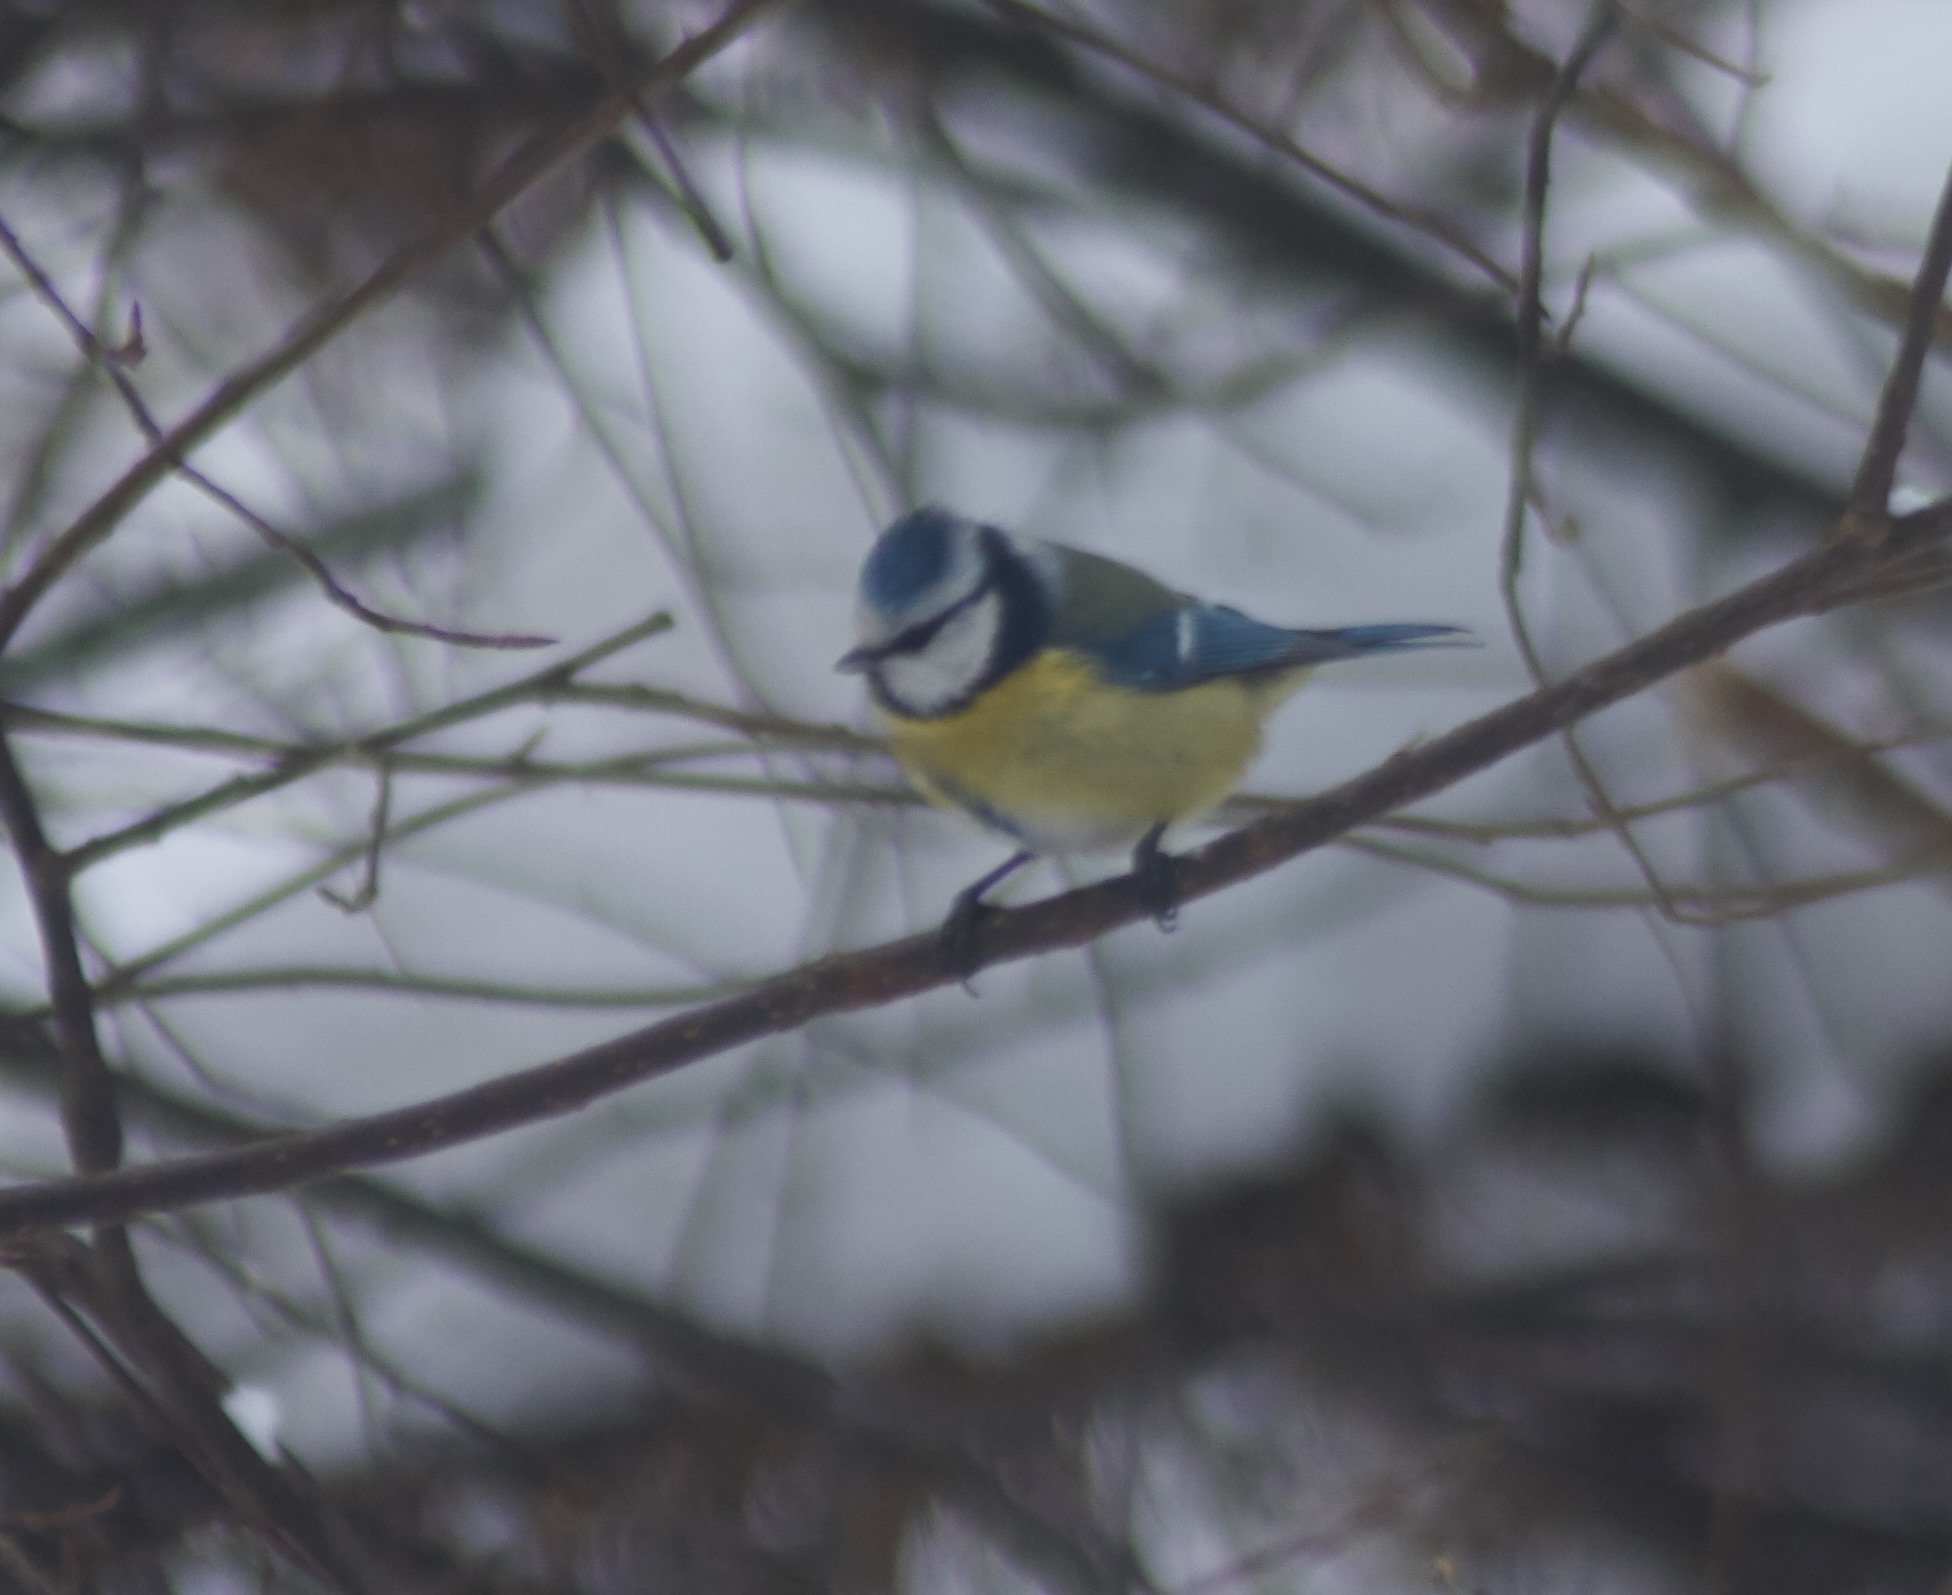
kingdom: Animalia
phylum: Chordata
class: Aves
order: Passeriformes
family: Paridae
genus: Cyanistes
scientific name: Cyanistes caeruleus
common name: Eurasian blue tit
